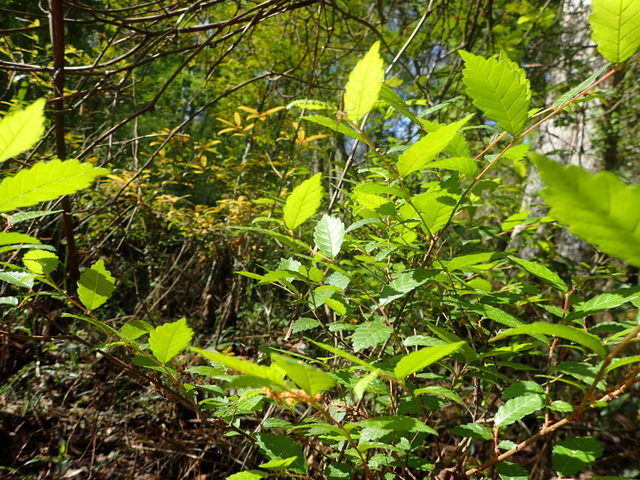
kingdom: Plantae
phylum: Tracheophyta
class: Magnoliopsida
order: Fagales
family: Betulaceae
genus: Betula
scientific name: Betula nigra
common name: Black birch
